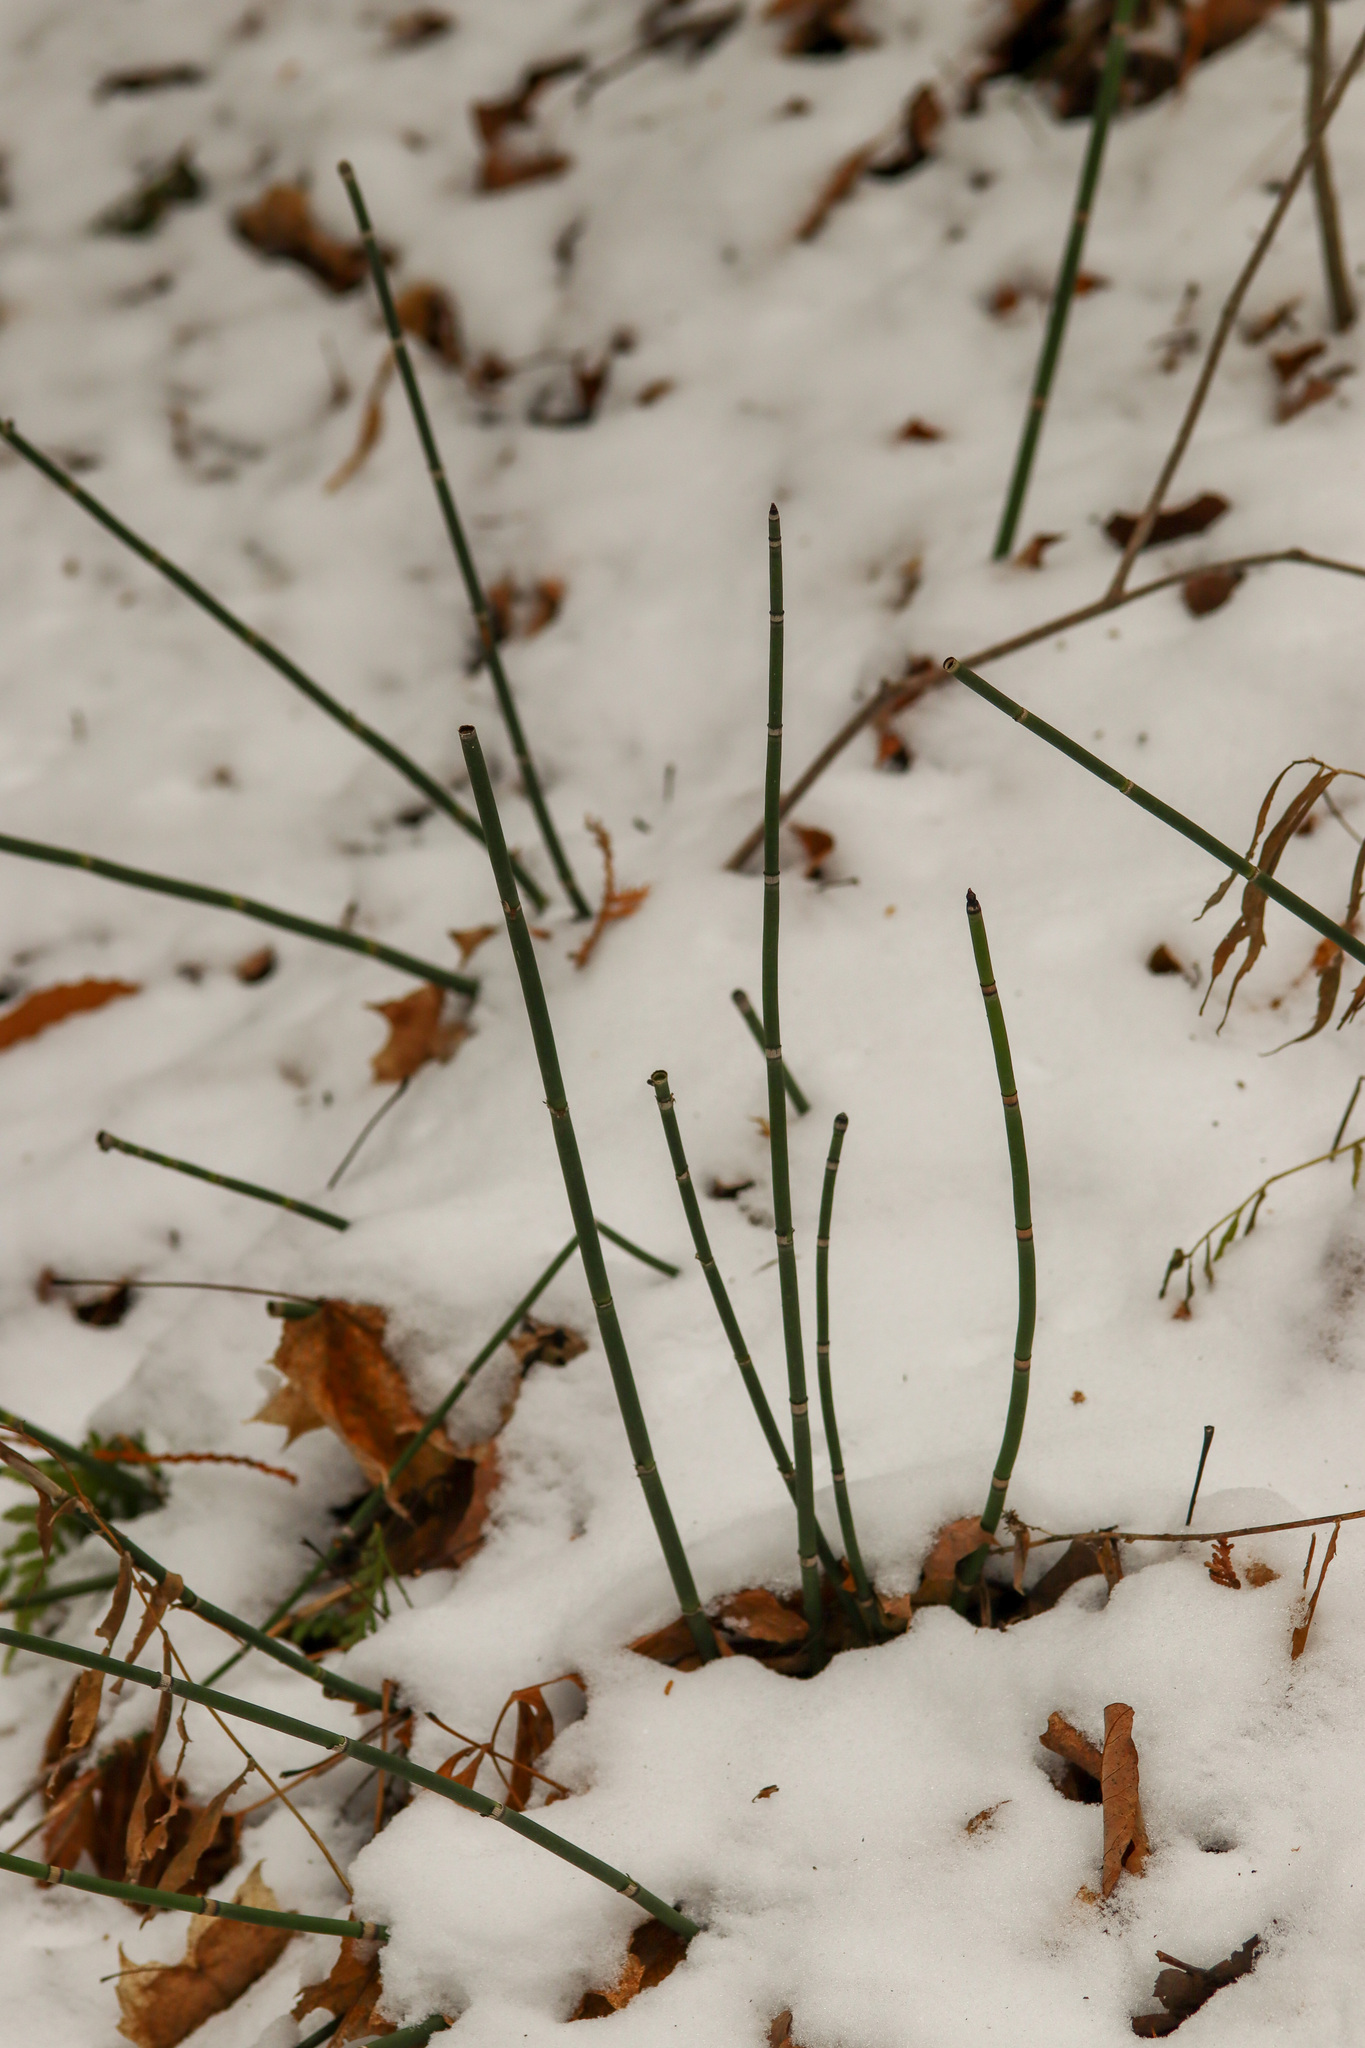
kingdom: Plantae
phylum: Tracheophyta
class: Polypodiopsida
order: Equisetales
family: Equisetaceae
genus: Equisetum
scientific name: Equisetum hyemale
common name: Rough horsetail
